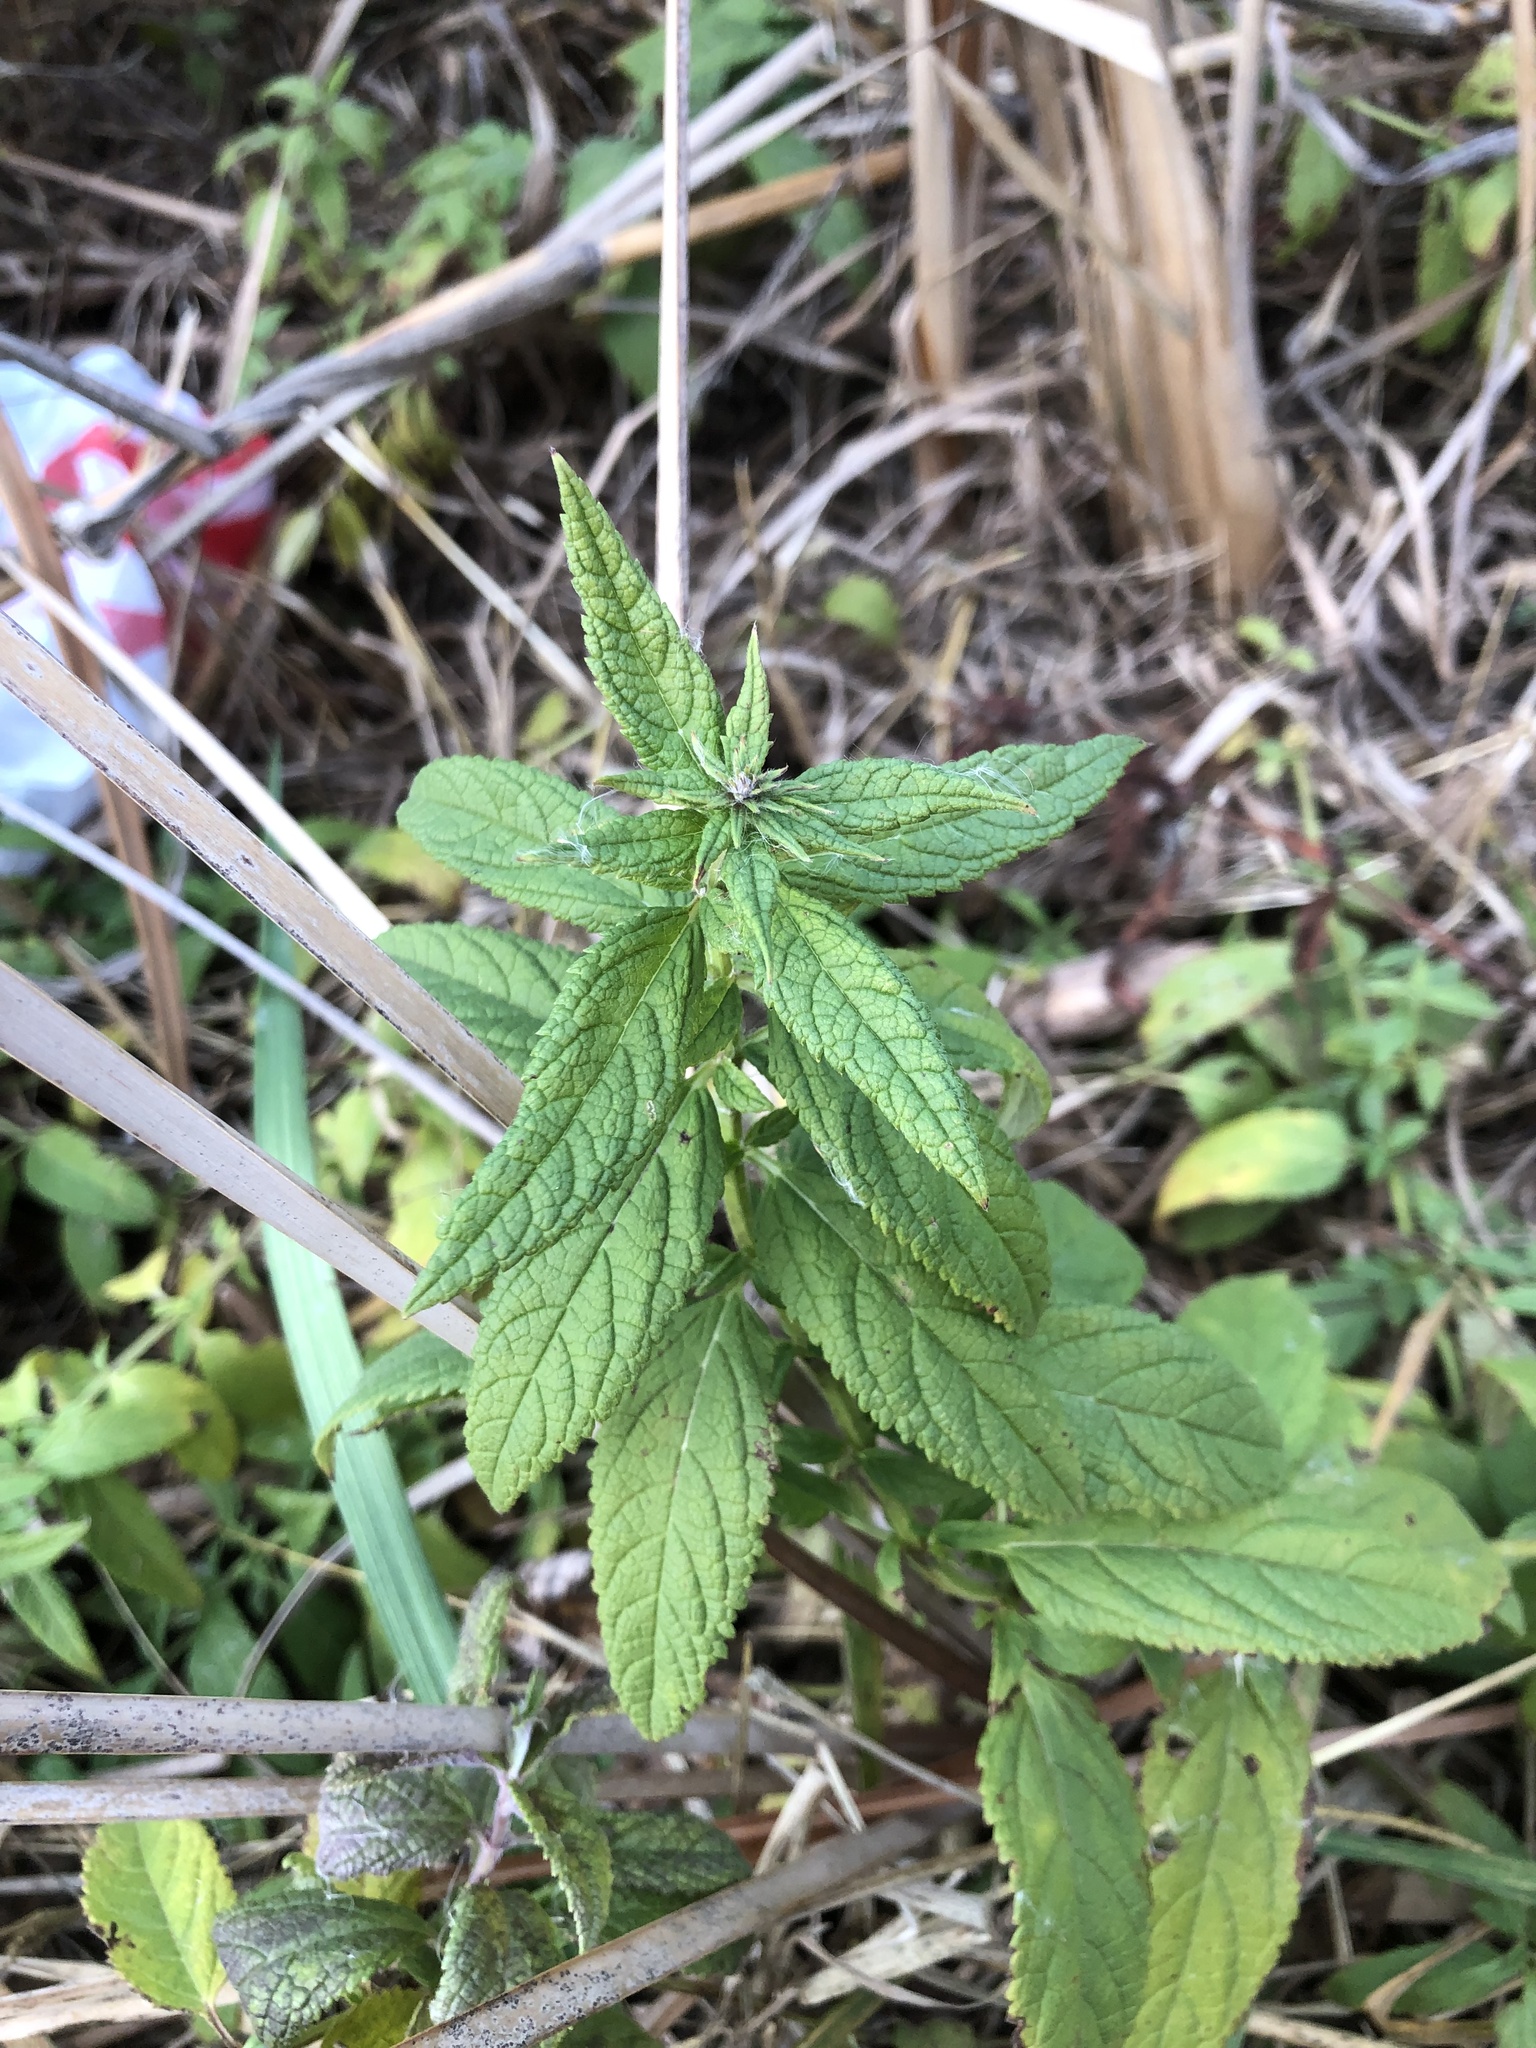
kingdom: Plantae
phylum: Tracheophyta
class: Magnoliopsida
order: Lamiales
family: Lamiaceae
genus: Teucrium
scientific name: Teucrium canadense
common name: American germander
